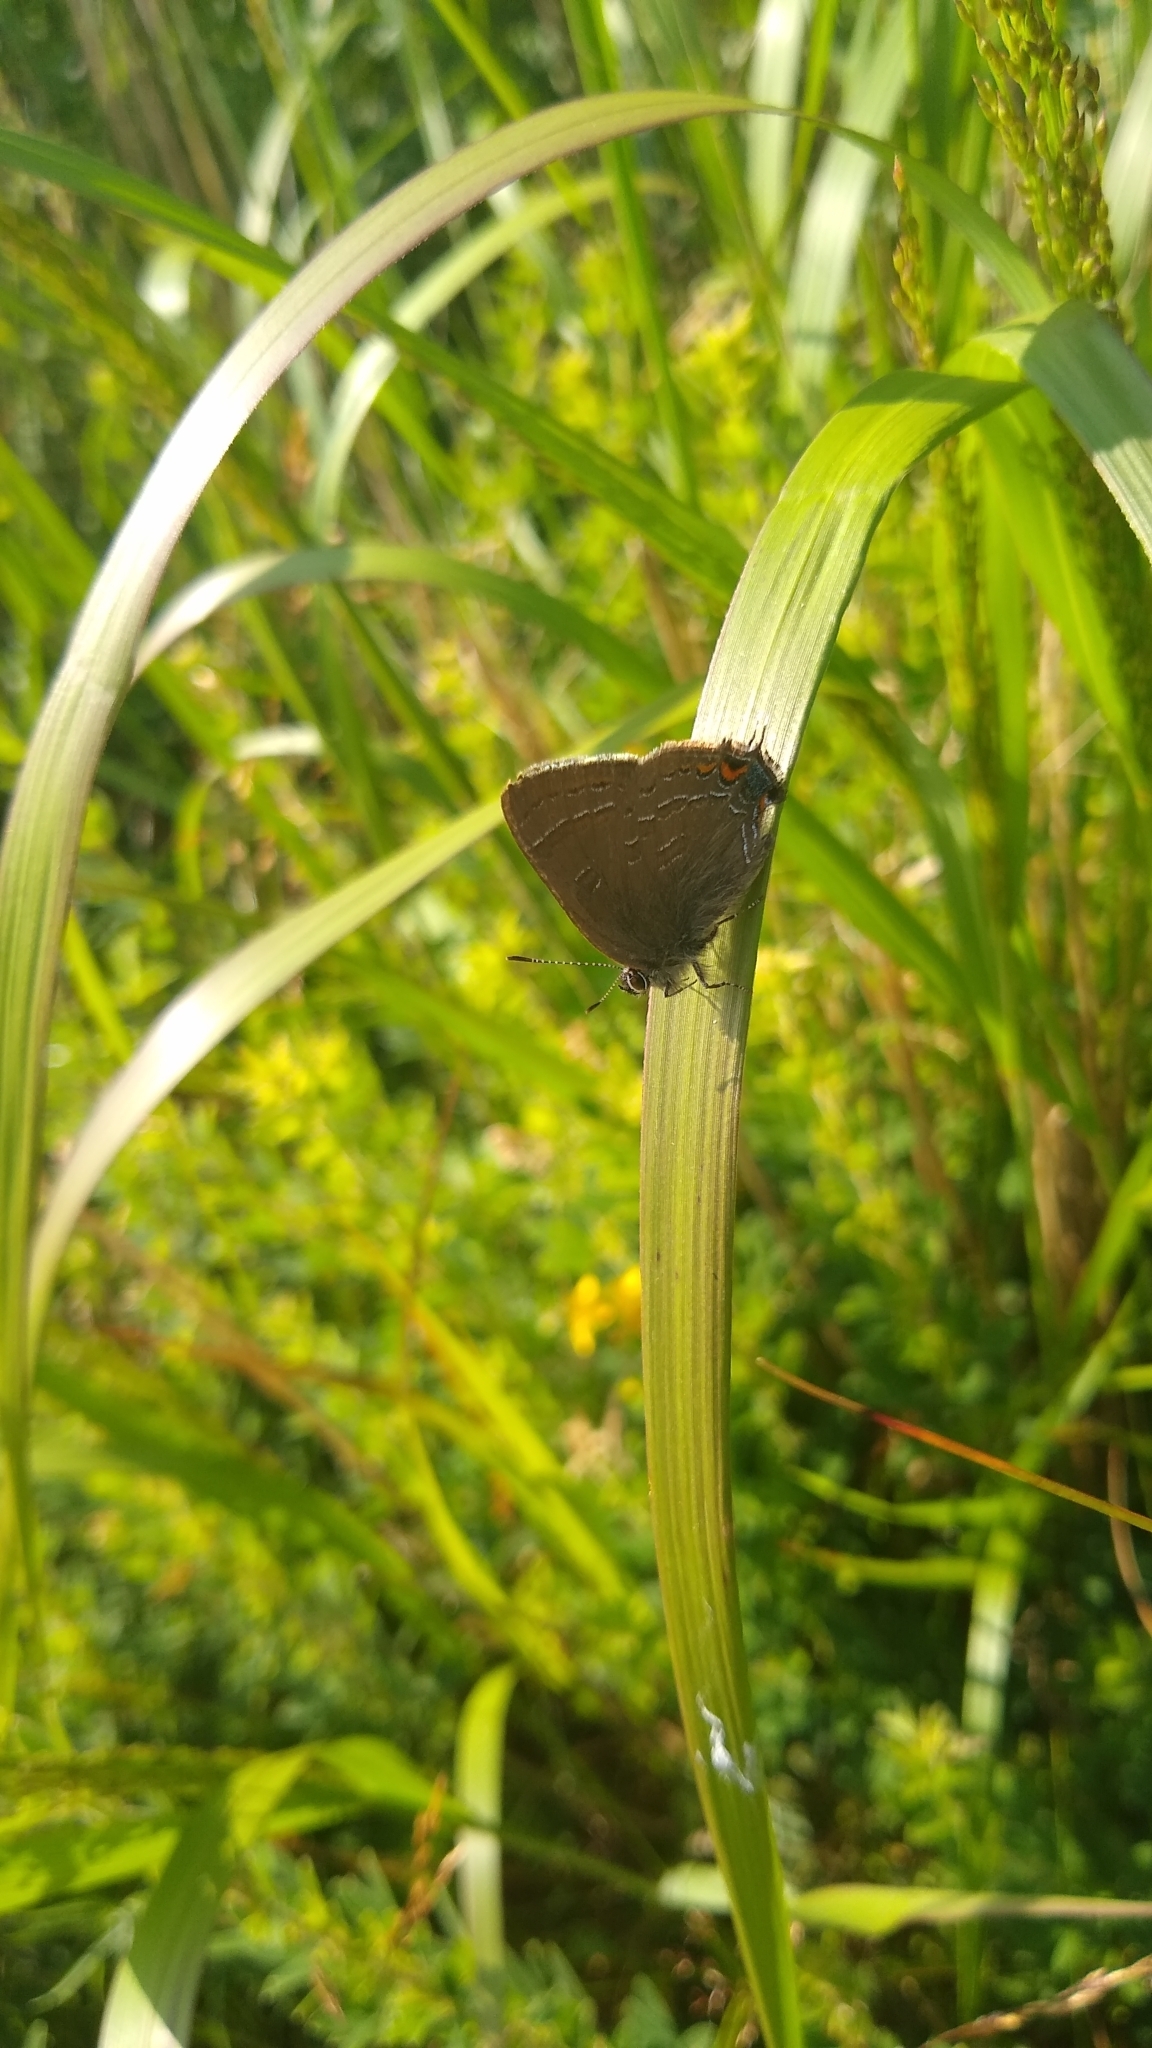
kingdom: Animalia
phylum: Arthropoda
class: Insecta
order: Lepidoptera
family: Lycaenidae
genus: Satyrium
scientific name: Satyrium calanus
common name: Banded hairstreak
